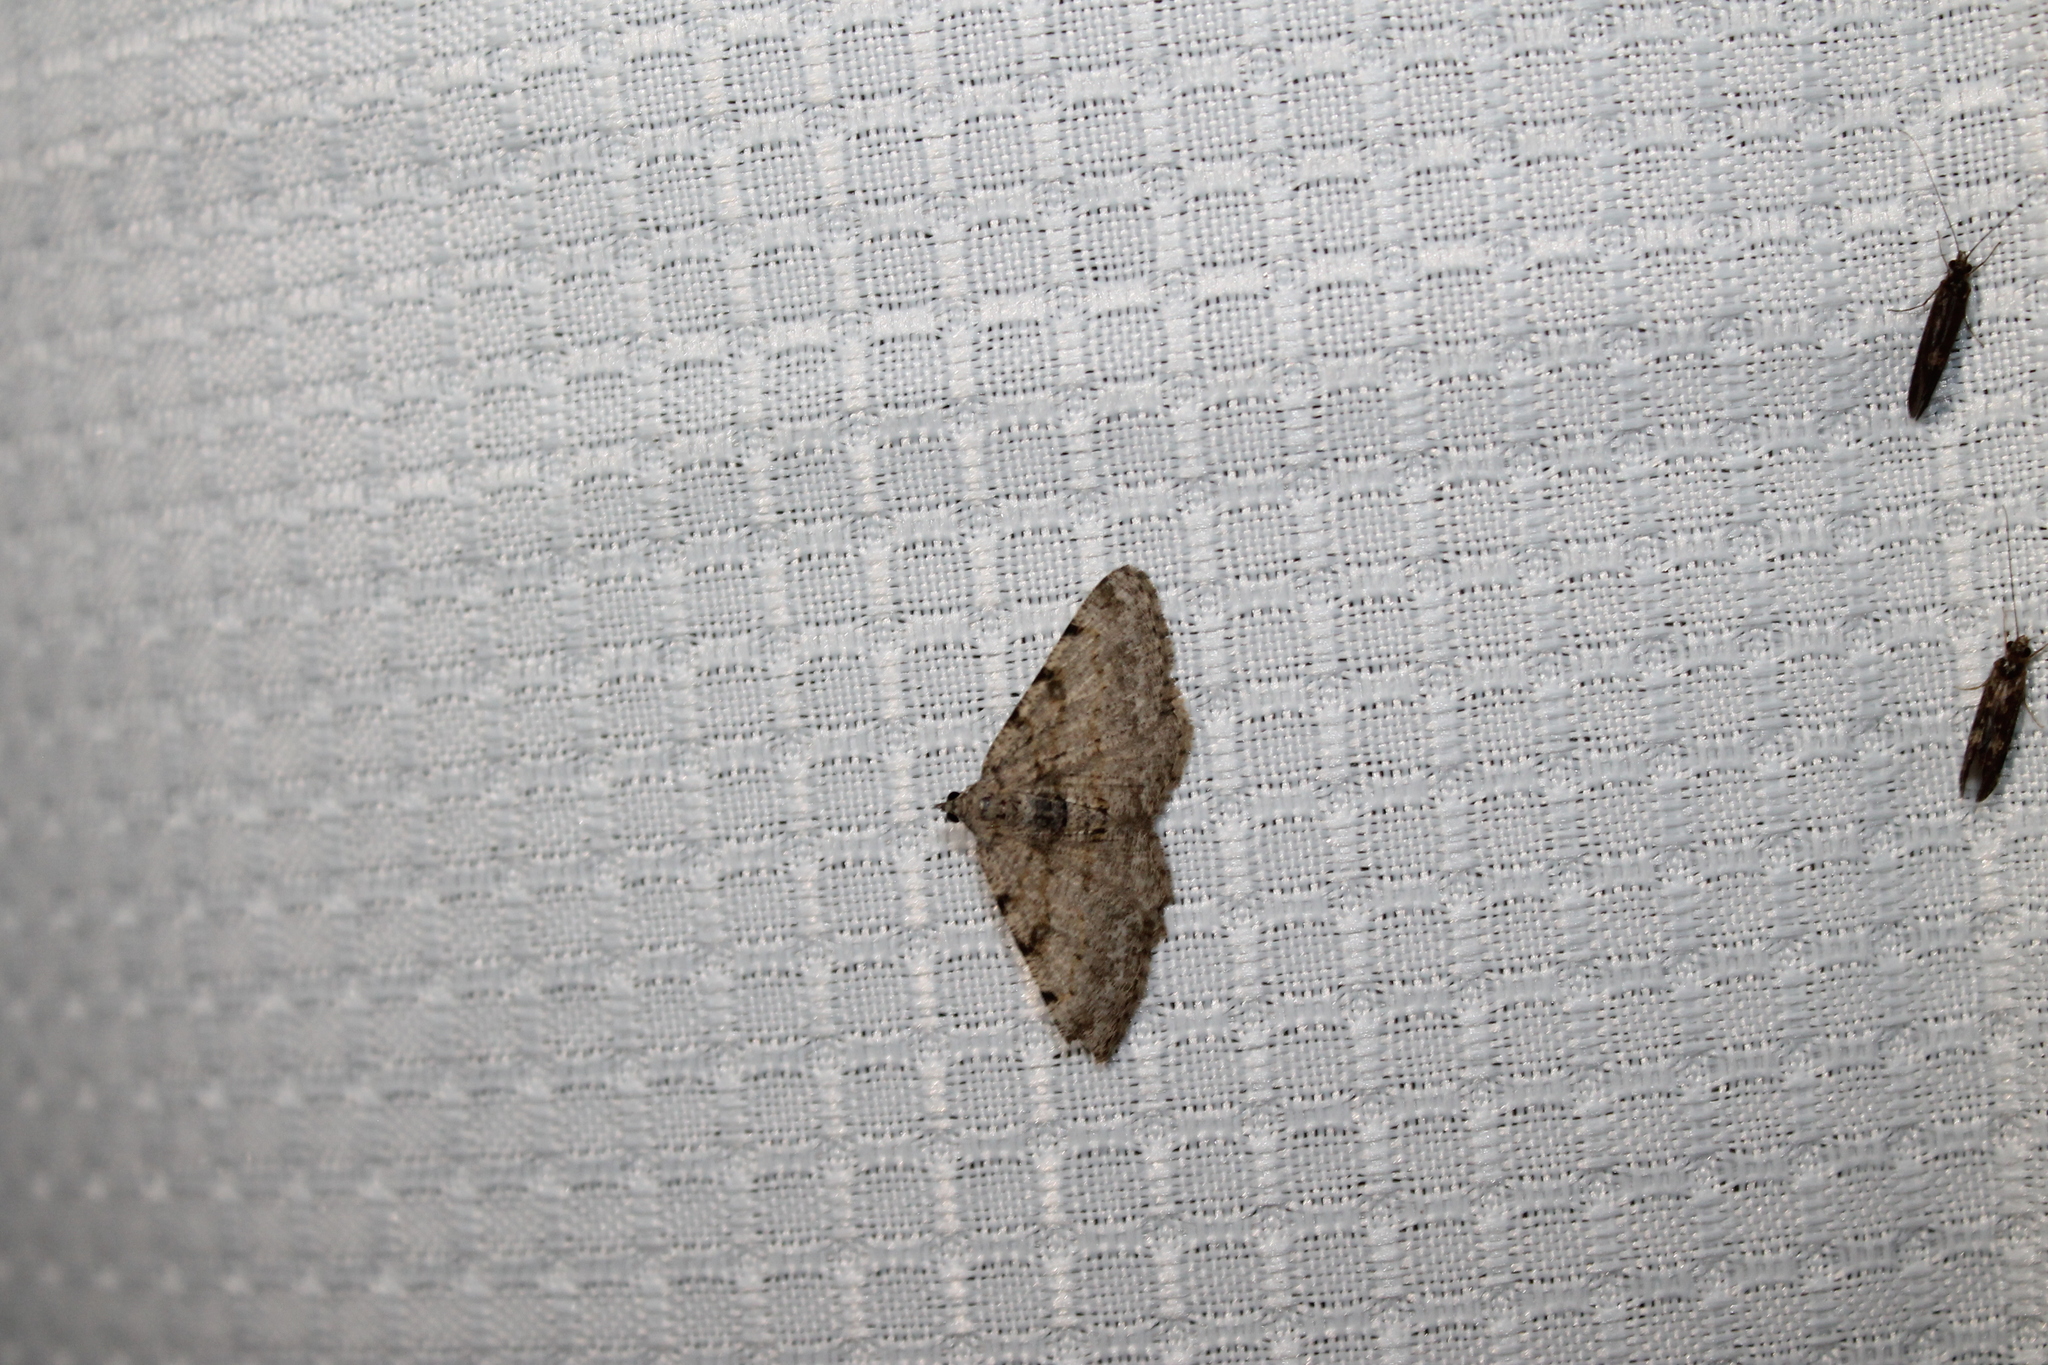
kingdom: Animalia
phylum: Arthropoda
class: Insecta
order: Lepidoptera
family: Geometridae
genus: Digrammia
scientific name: Digrammia gnophosaria
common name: Hollow-spotted angle
